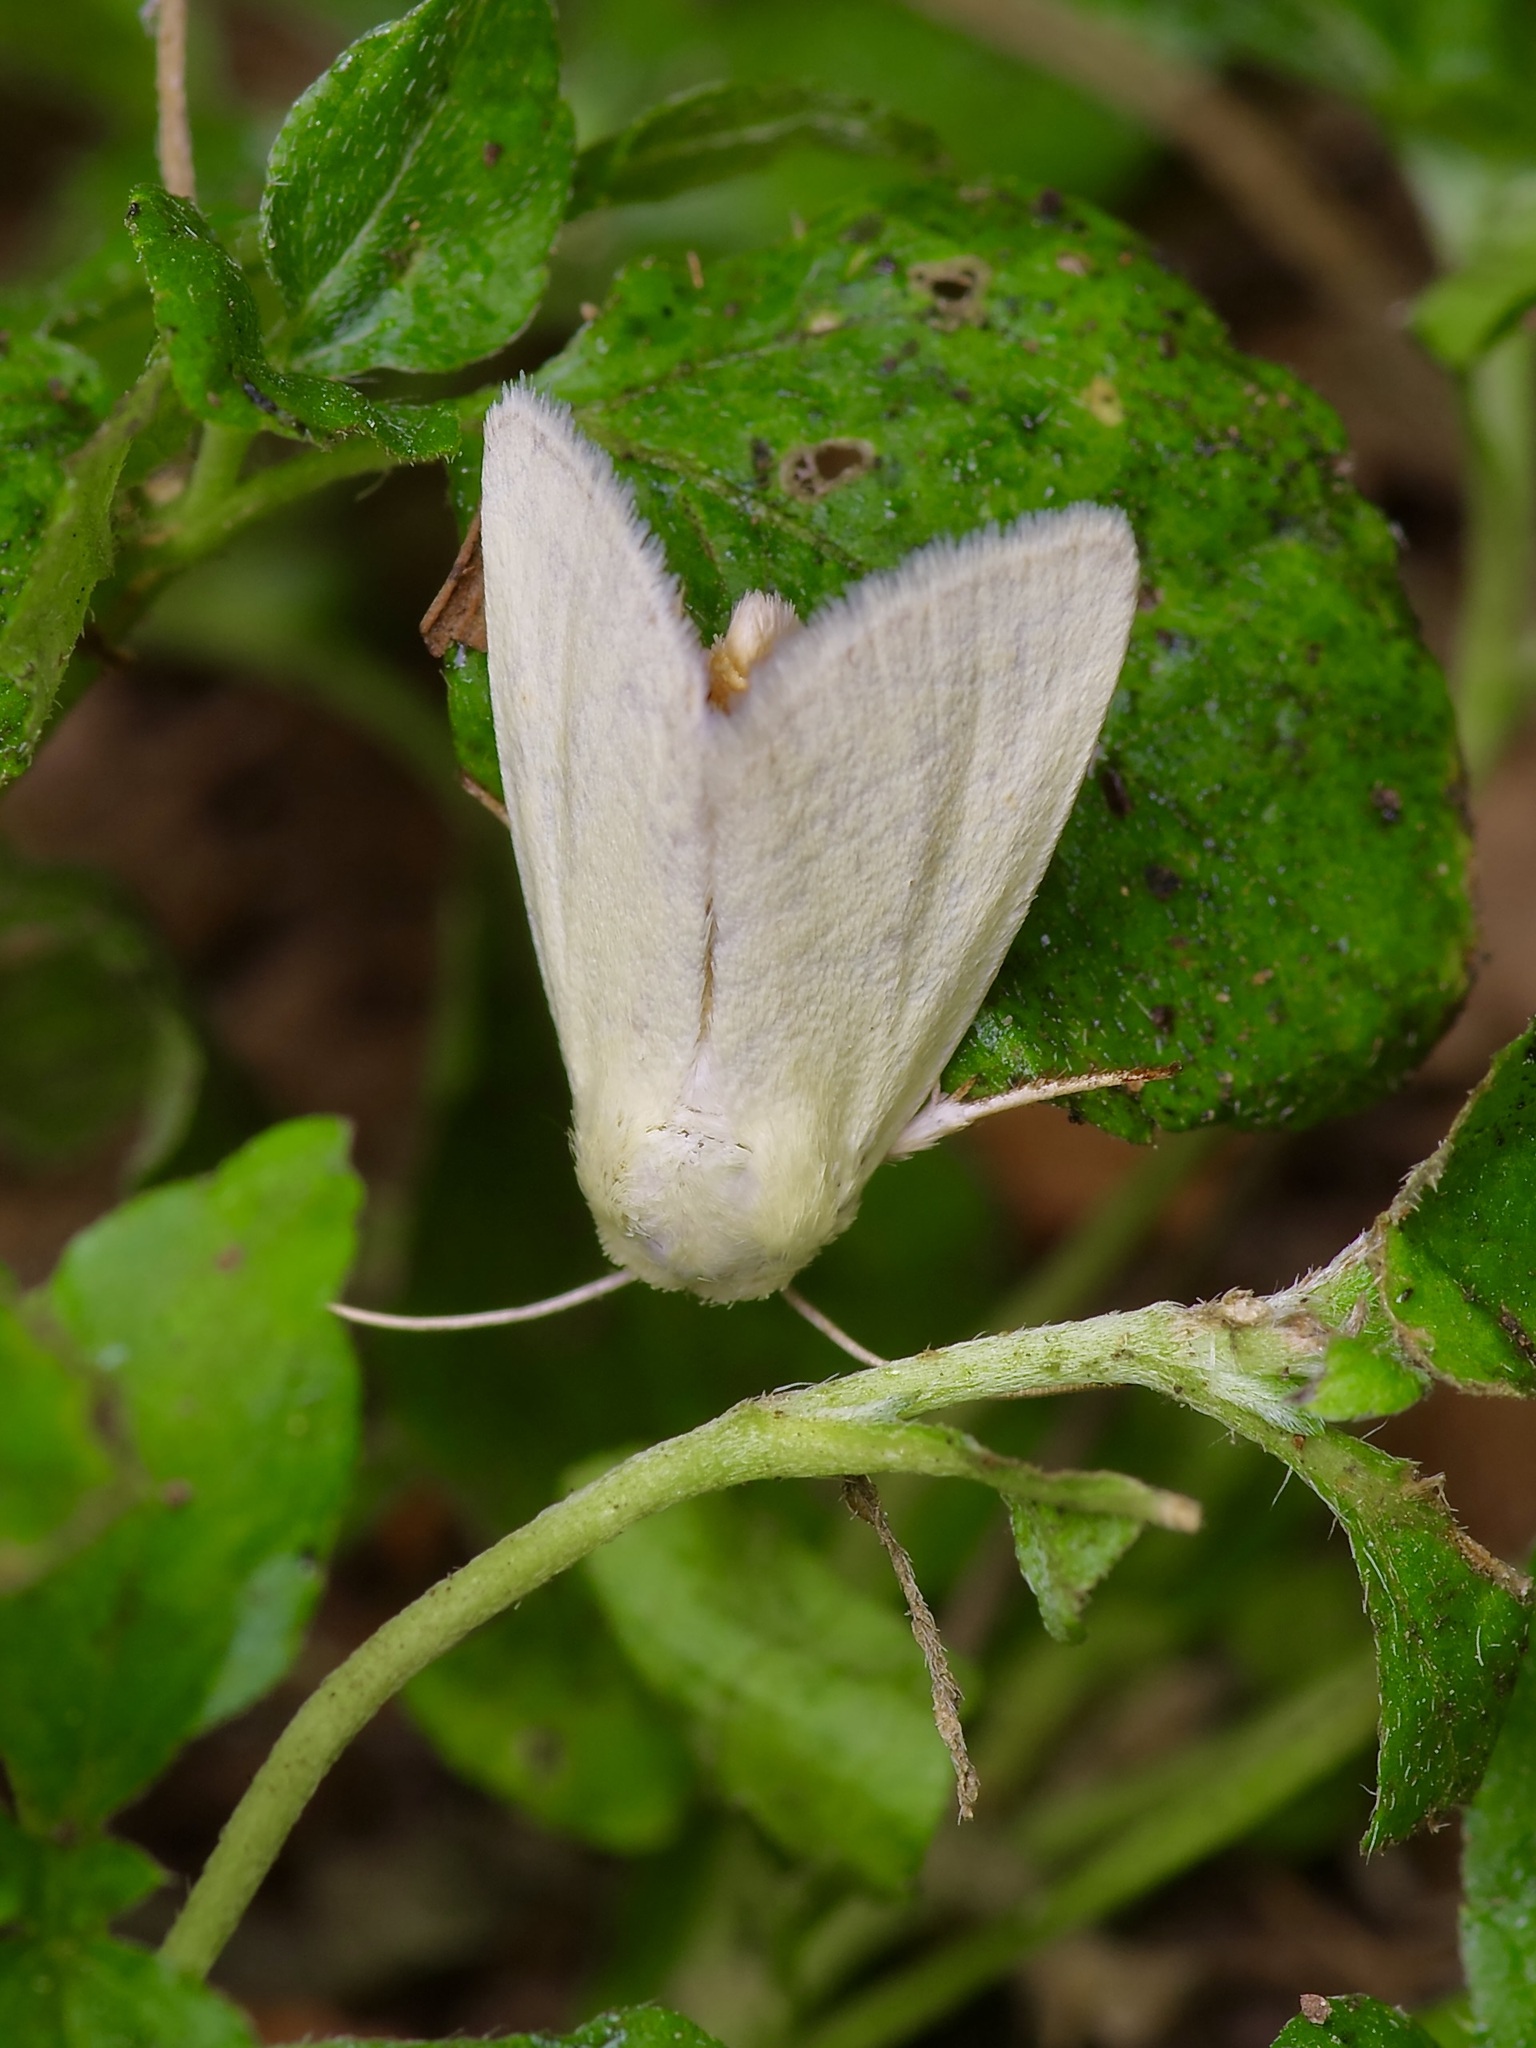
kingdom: Animalia
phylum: Arthropoda
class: Insecta
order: Lepidoptera
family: Noctuidae
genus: Bagisara
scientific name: Bagisara buxea
